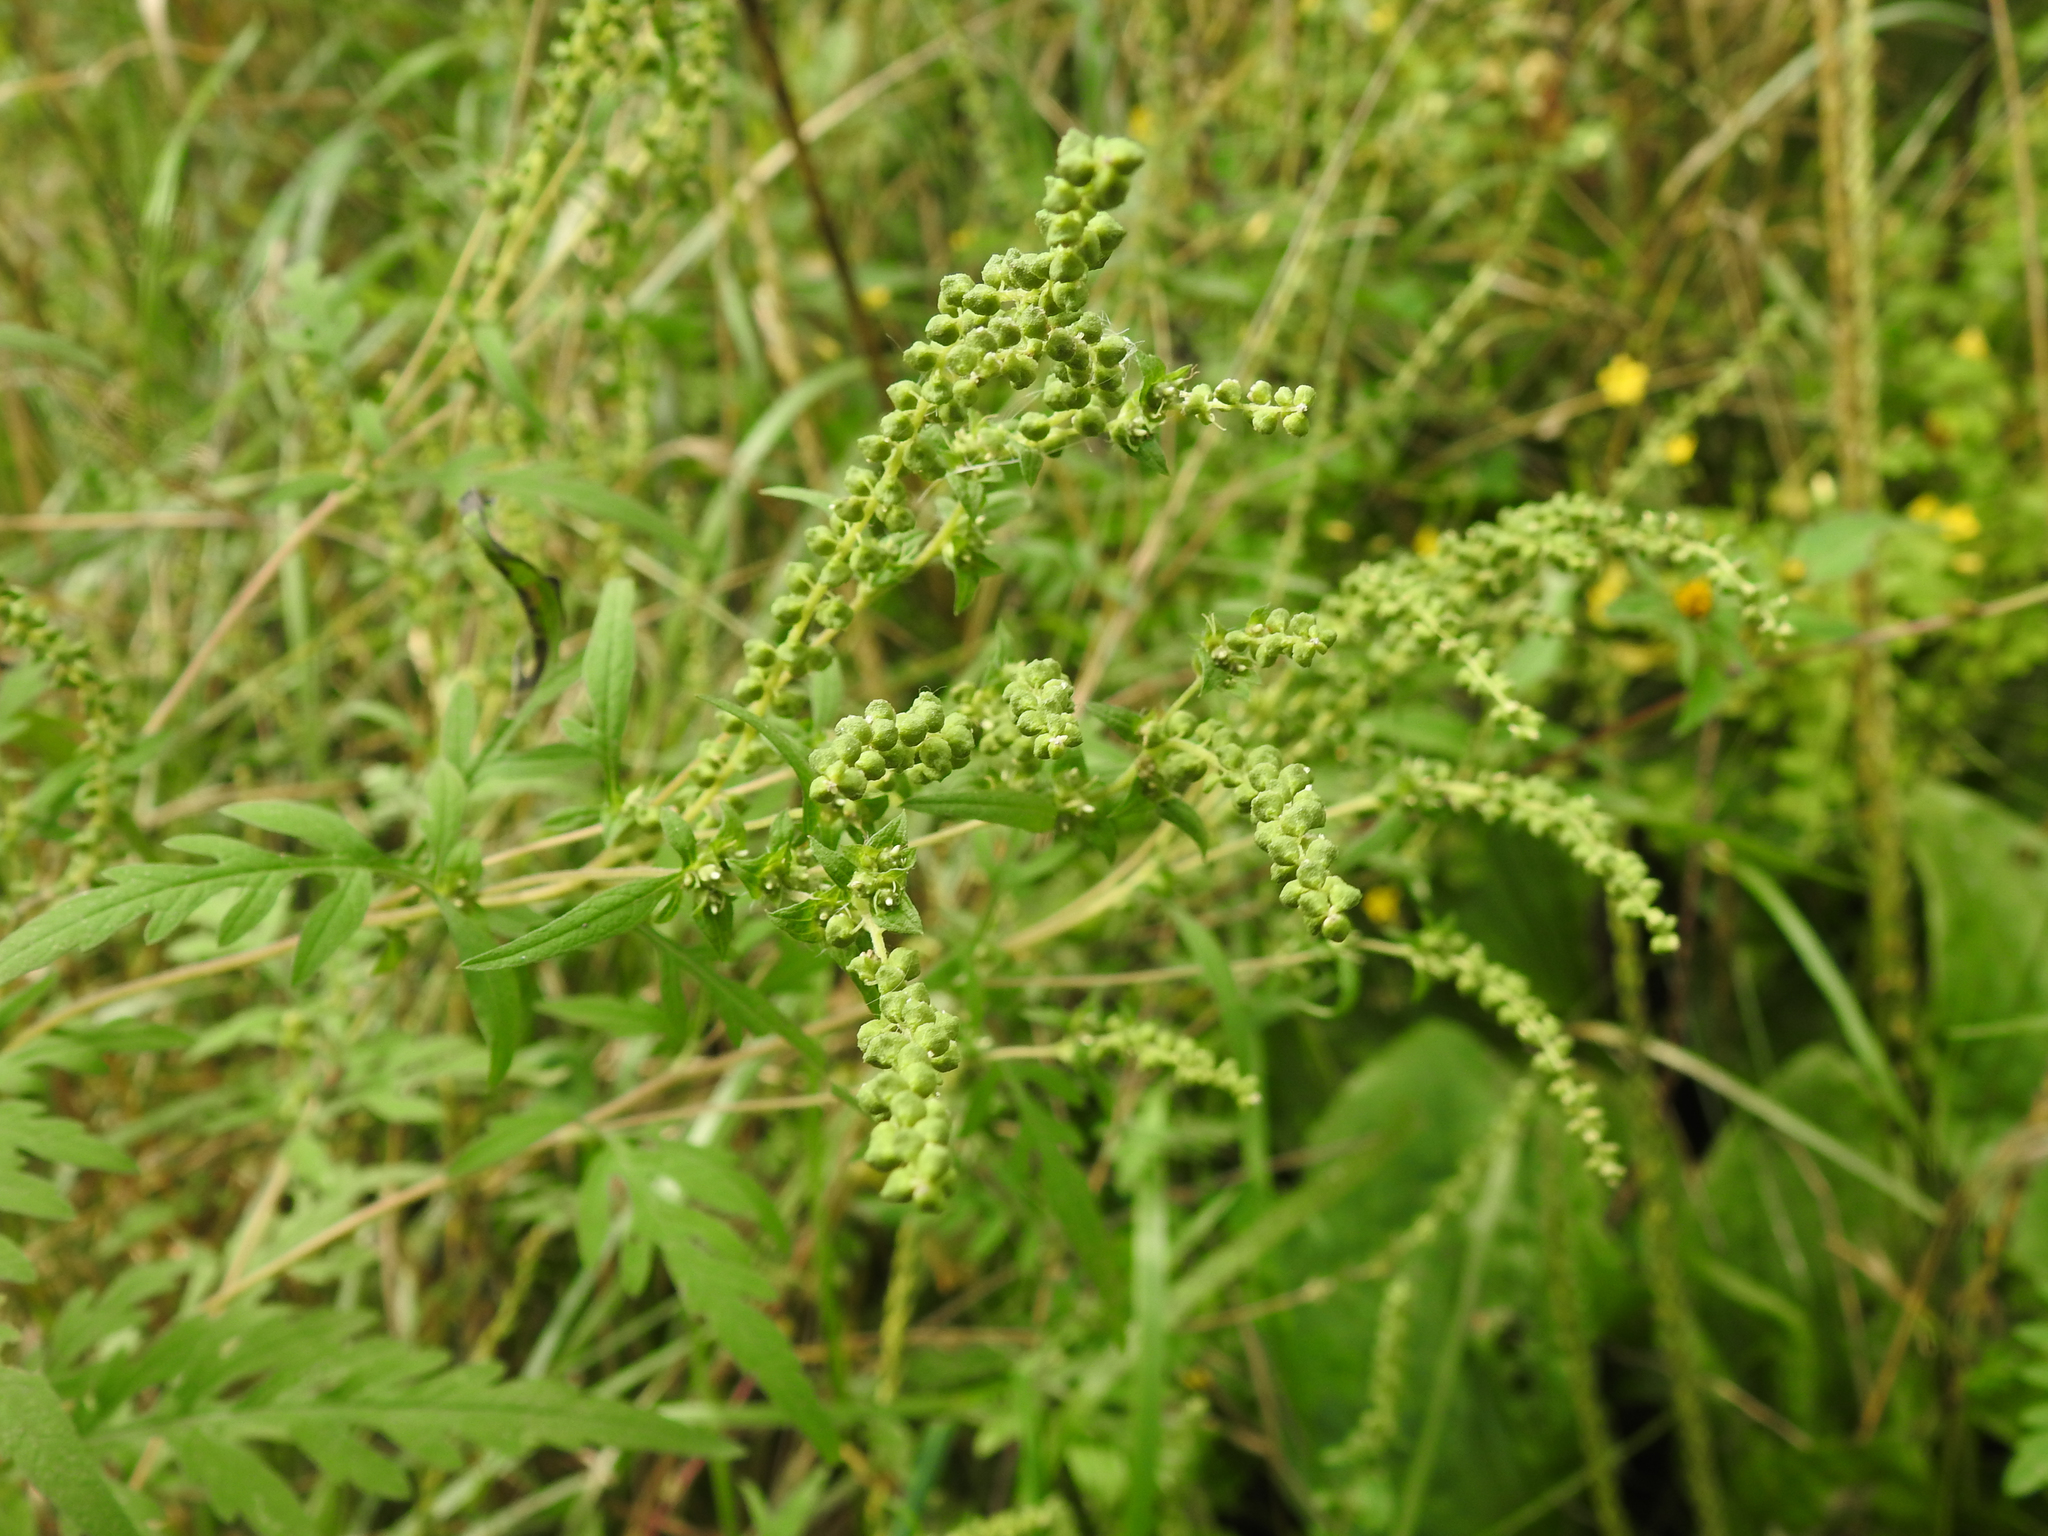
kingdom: Plantae
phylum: Tracheophyta
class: Magnoliopsida
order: Asterales
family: Asteraceae
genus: Ambrosia
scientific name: Ambrosia artemisiifolia
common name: Annual ragweed
